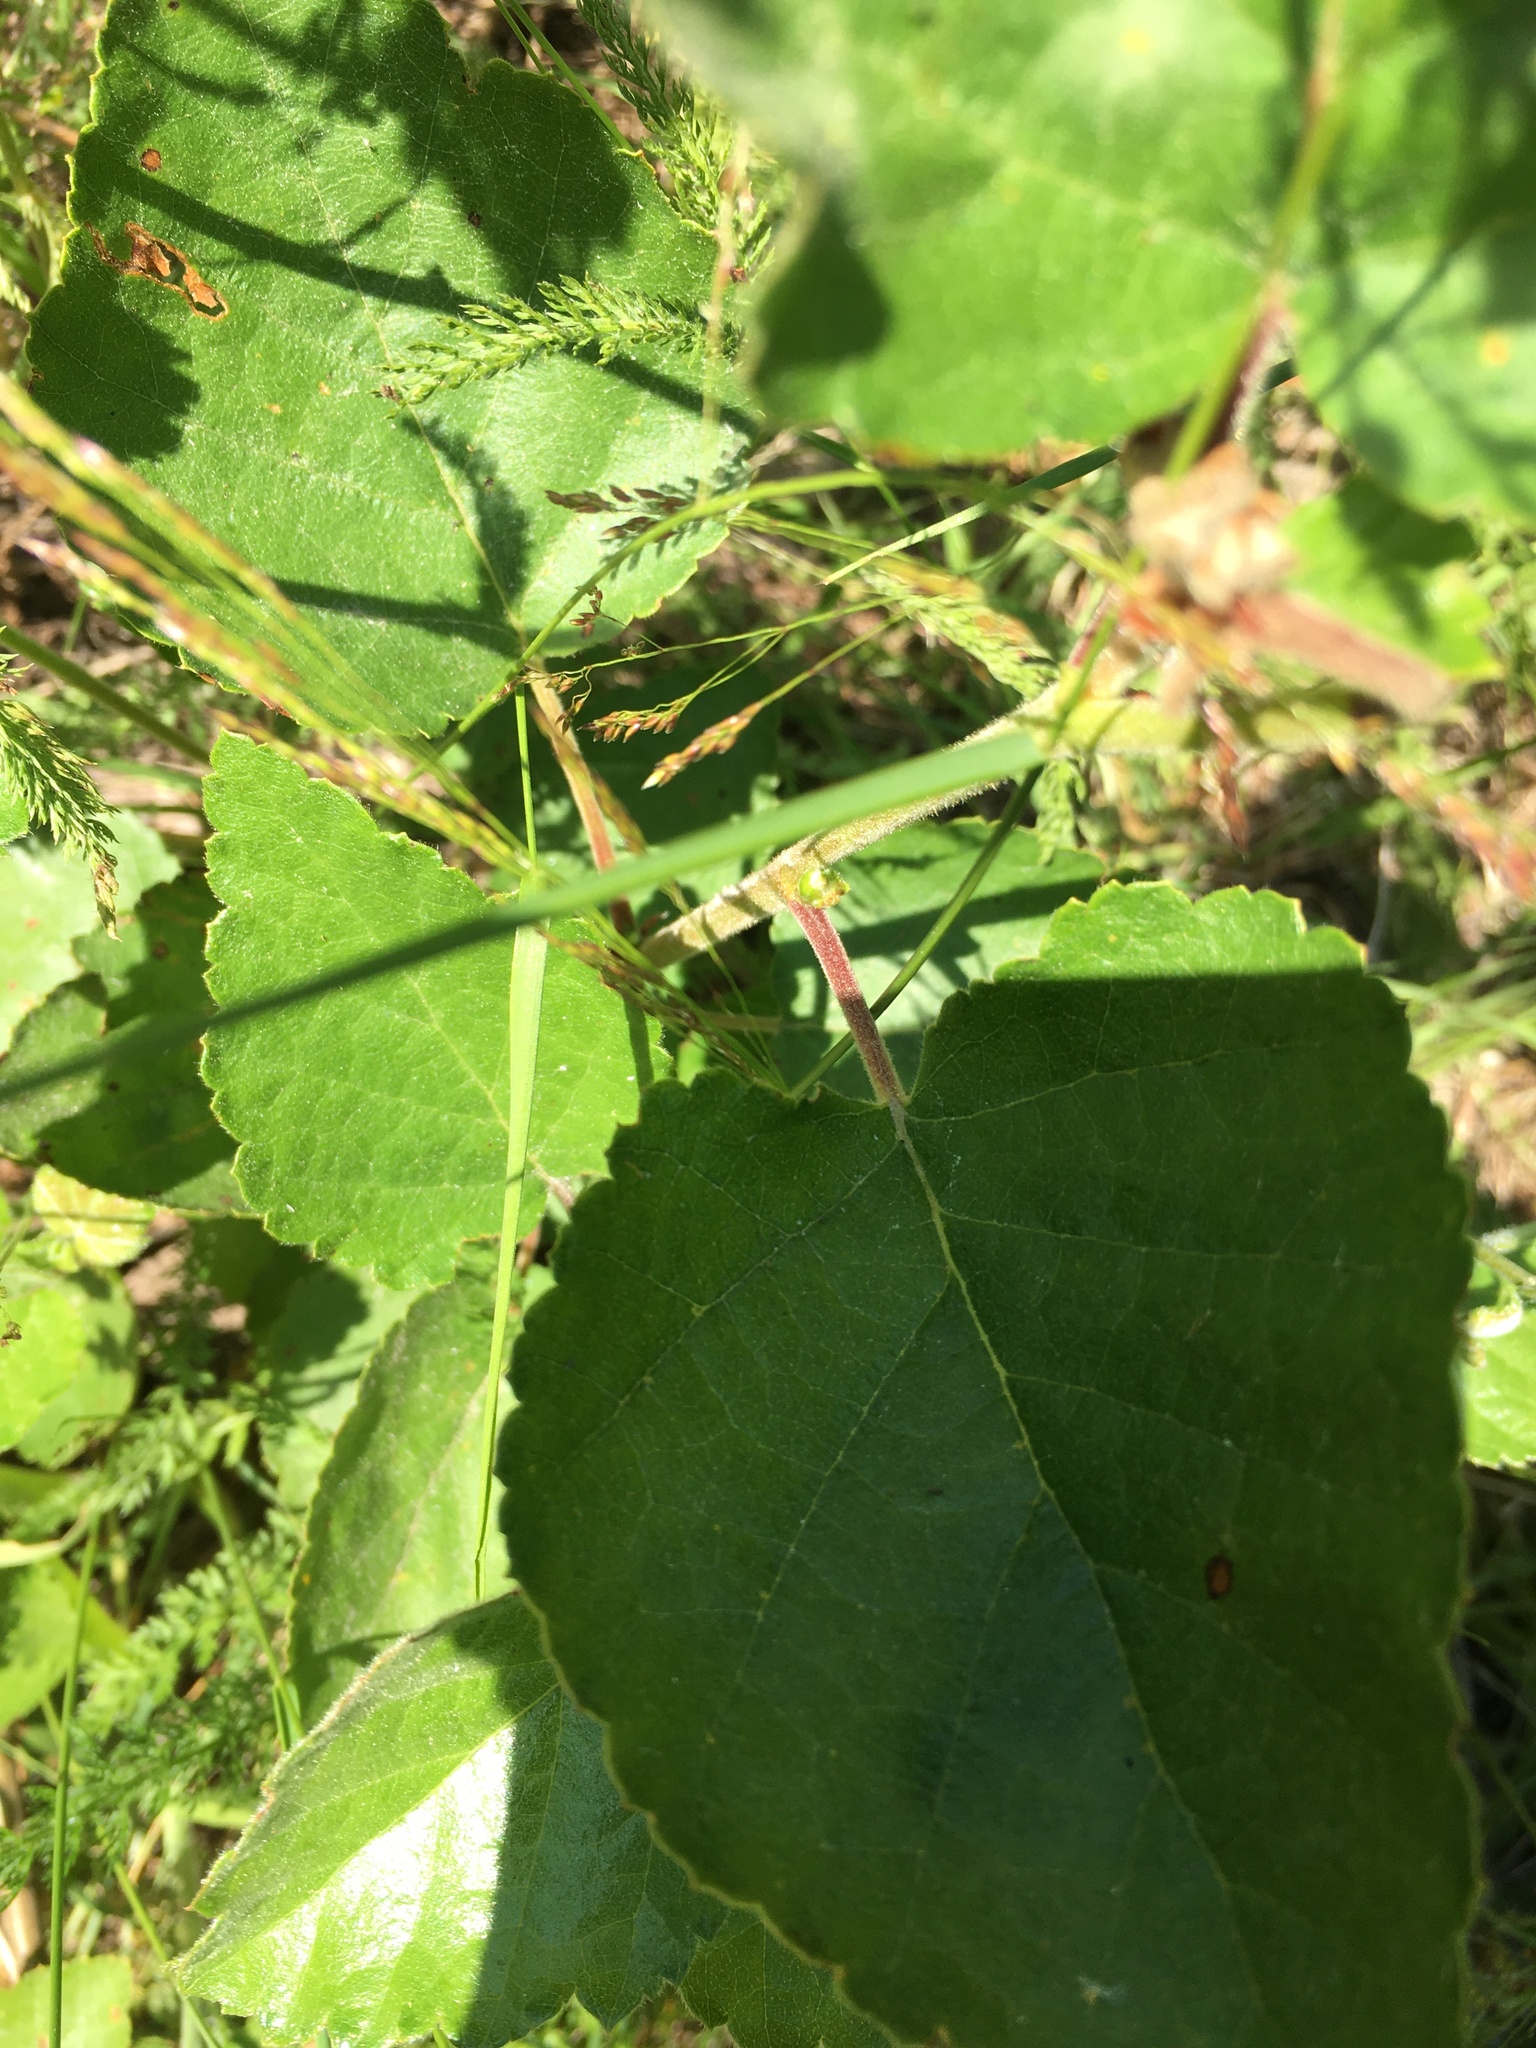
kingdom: Plantae
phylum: Tracheophyta
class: Magnoliopsida
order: Fagales
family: Betulaceae
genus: Betula
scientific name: Betula pubescens
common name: Downy birch
